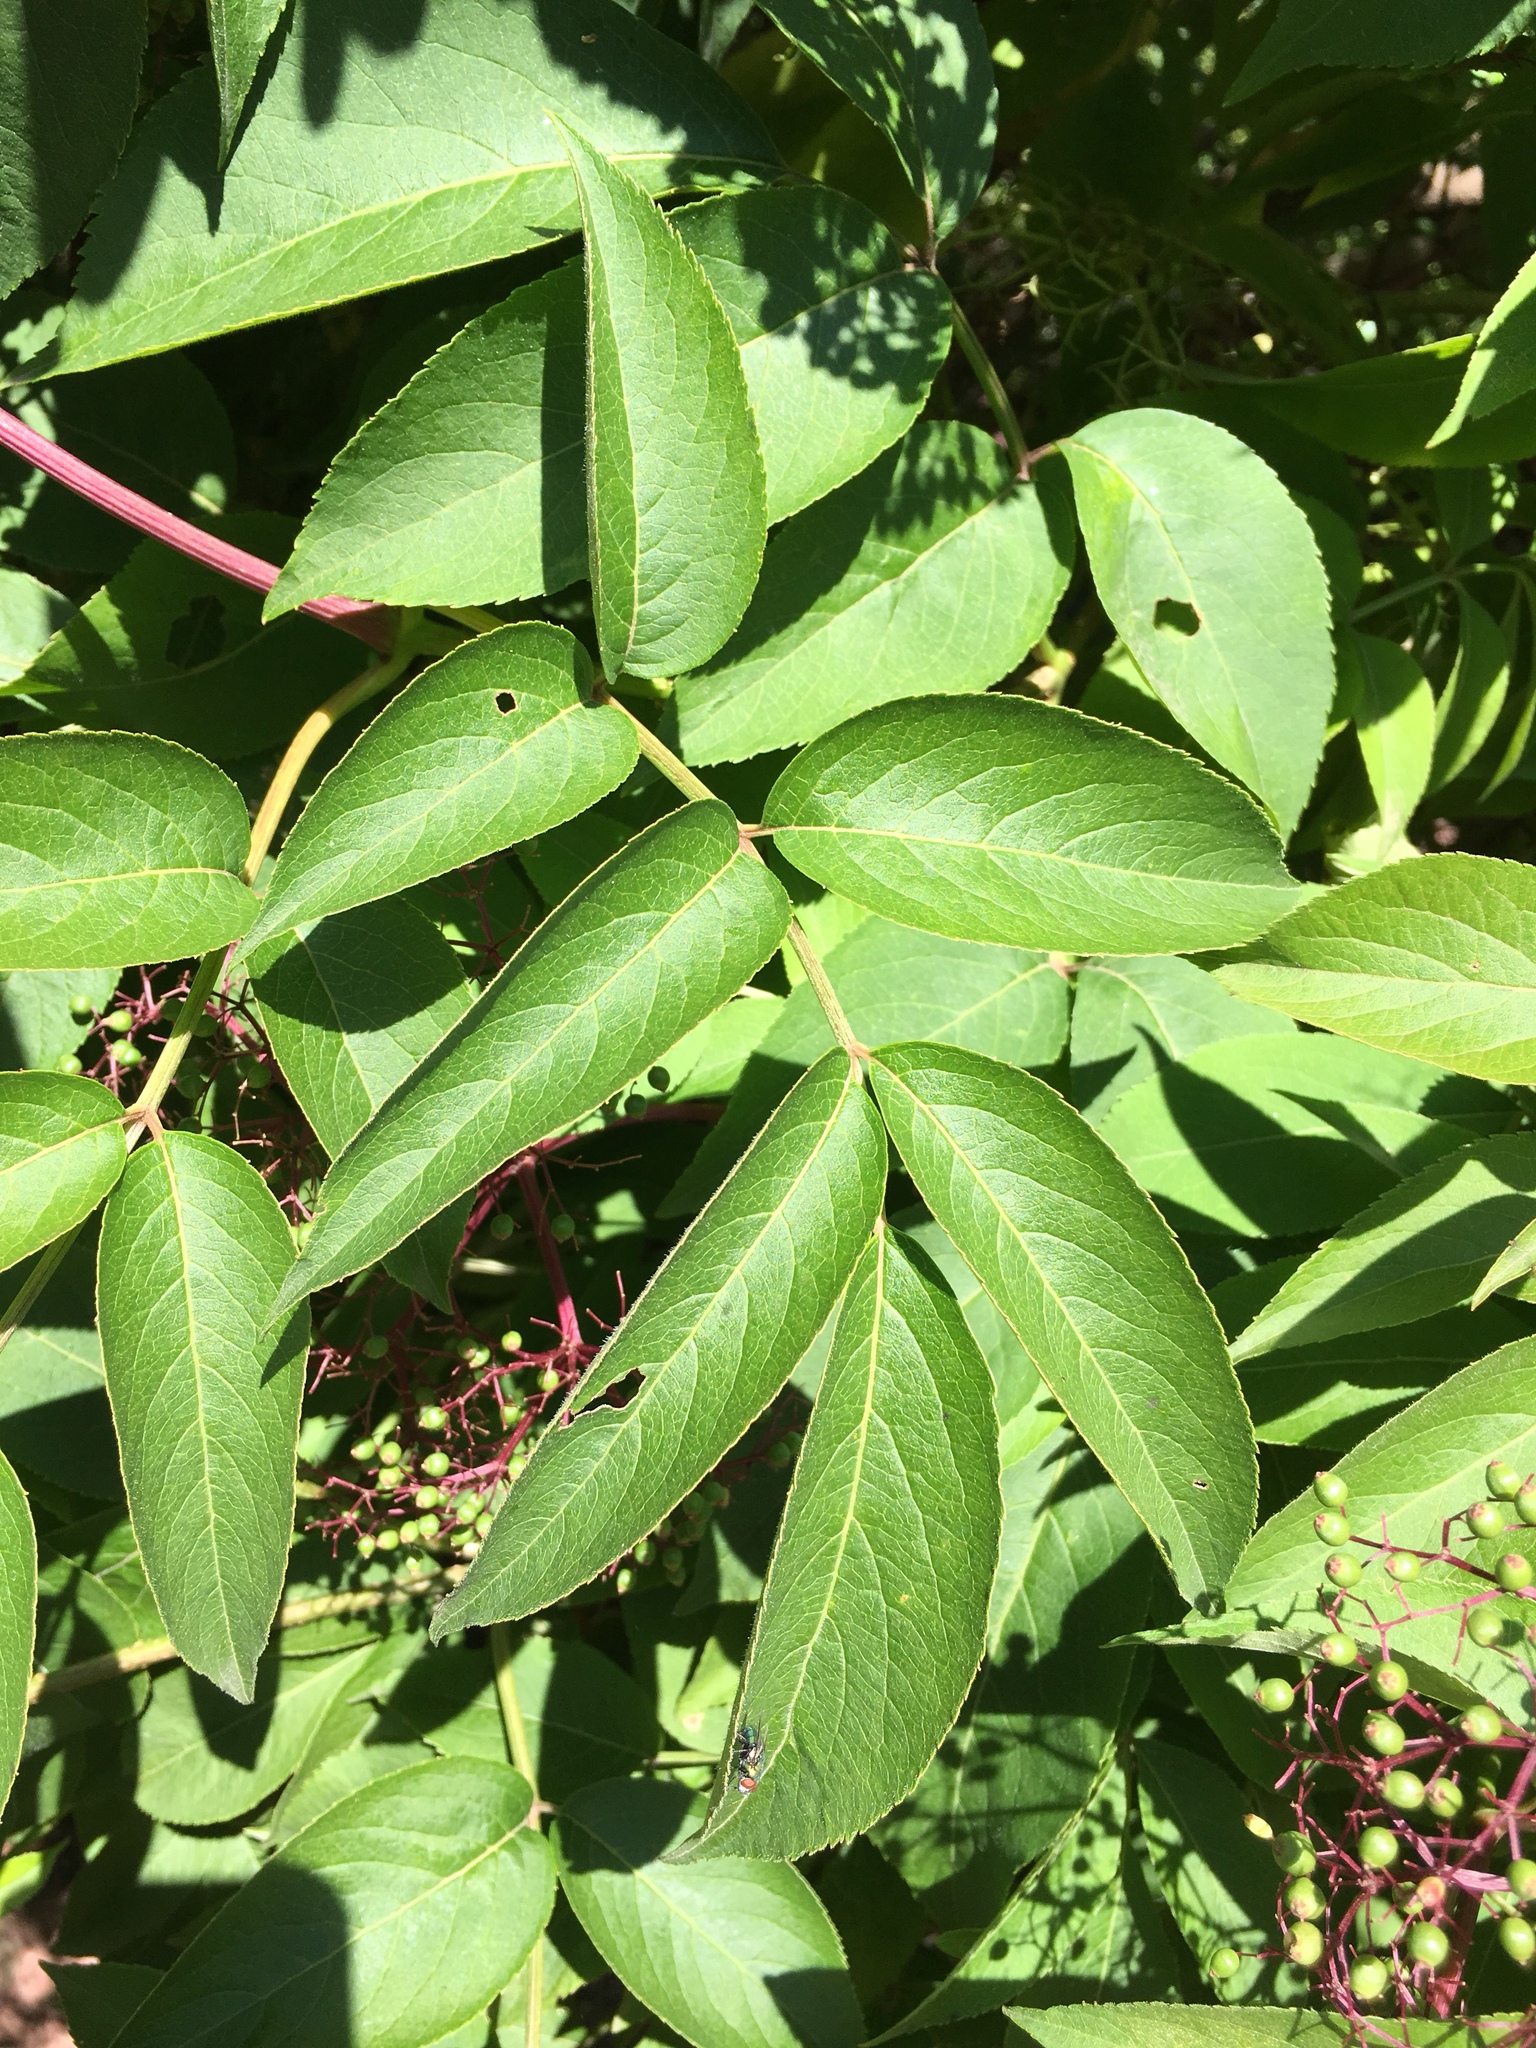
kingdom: Plantae
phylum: Tracheophyta
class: Magnoliopsida
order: Dipsacales
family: Viburnaceae
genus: Sambucus
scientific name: Sambucus canadensis
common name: American elder
